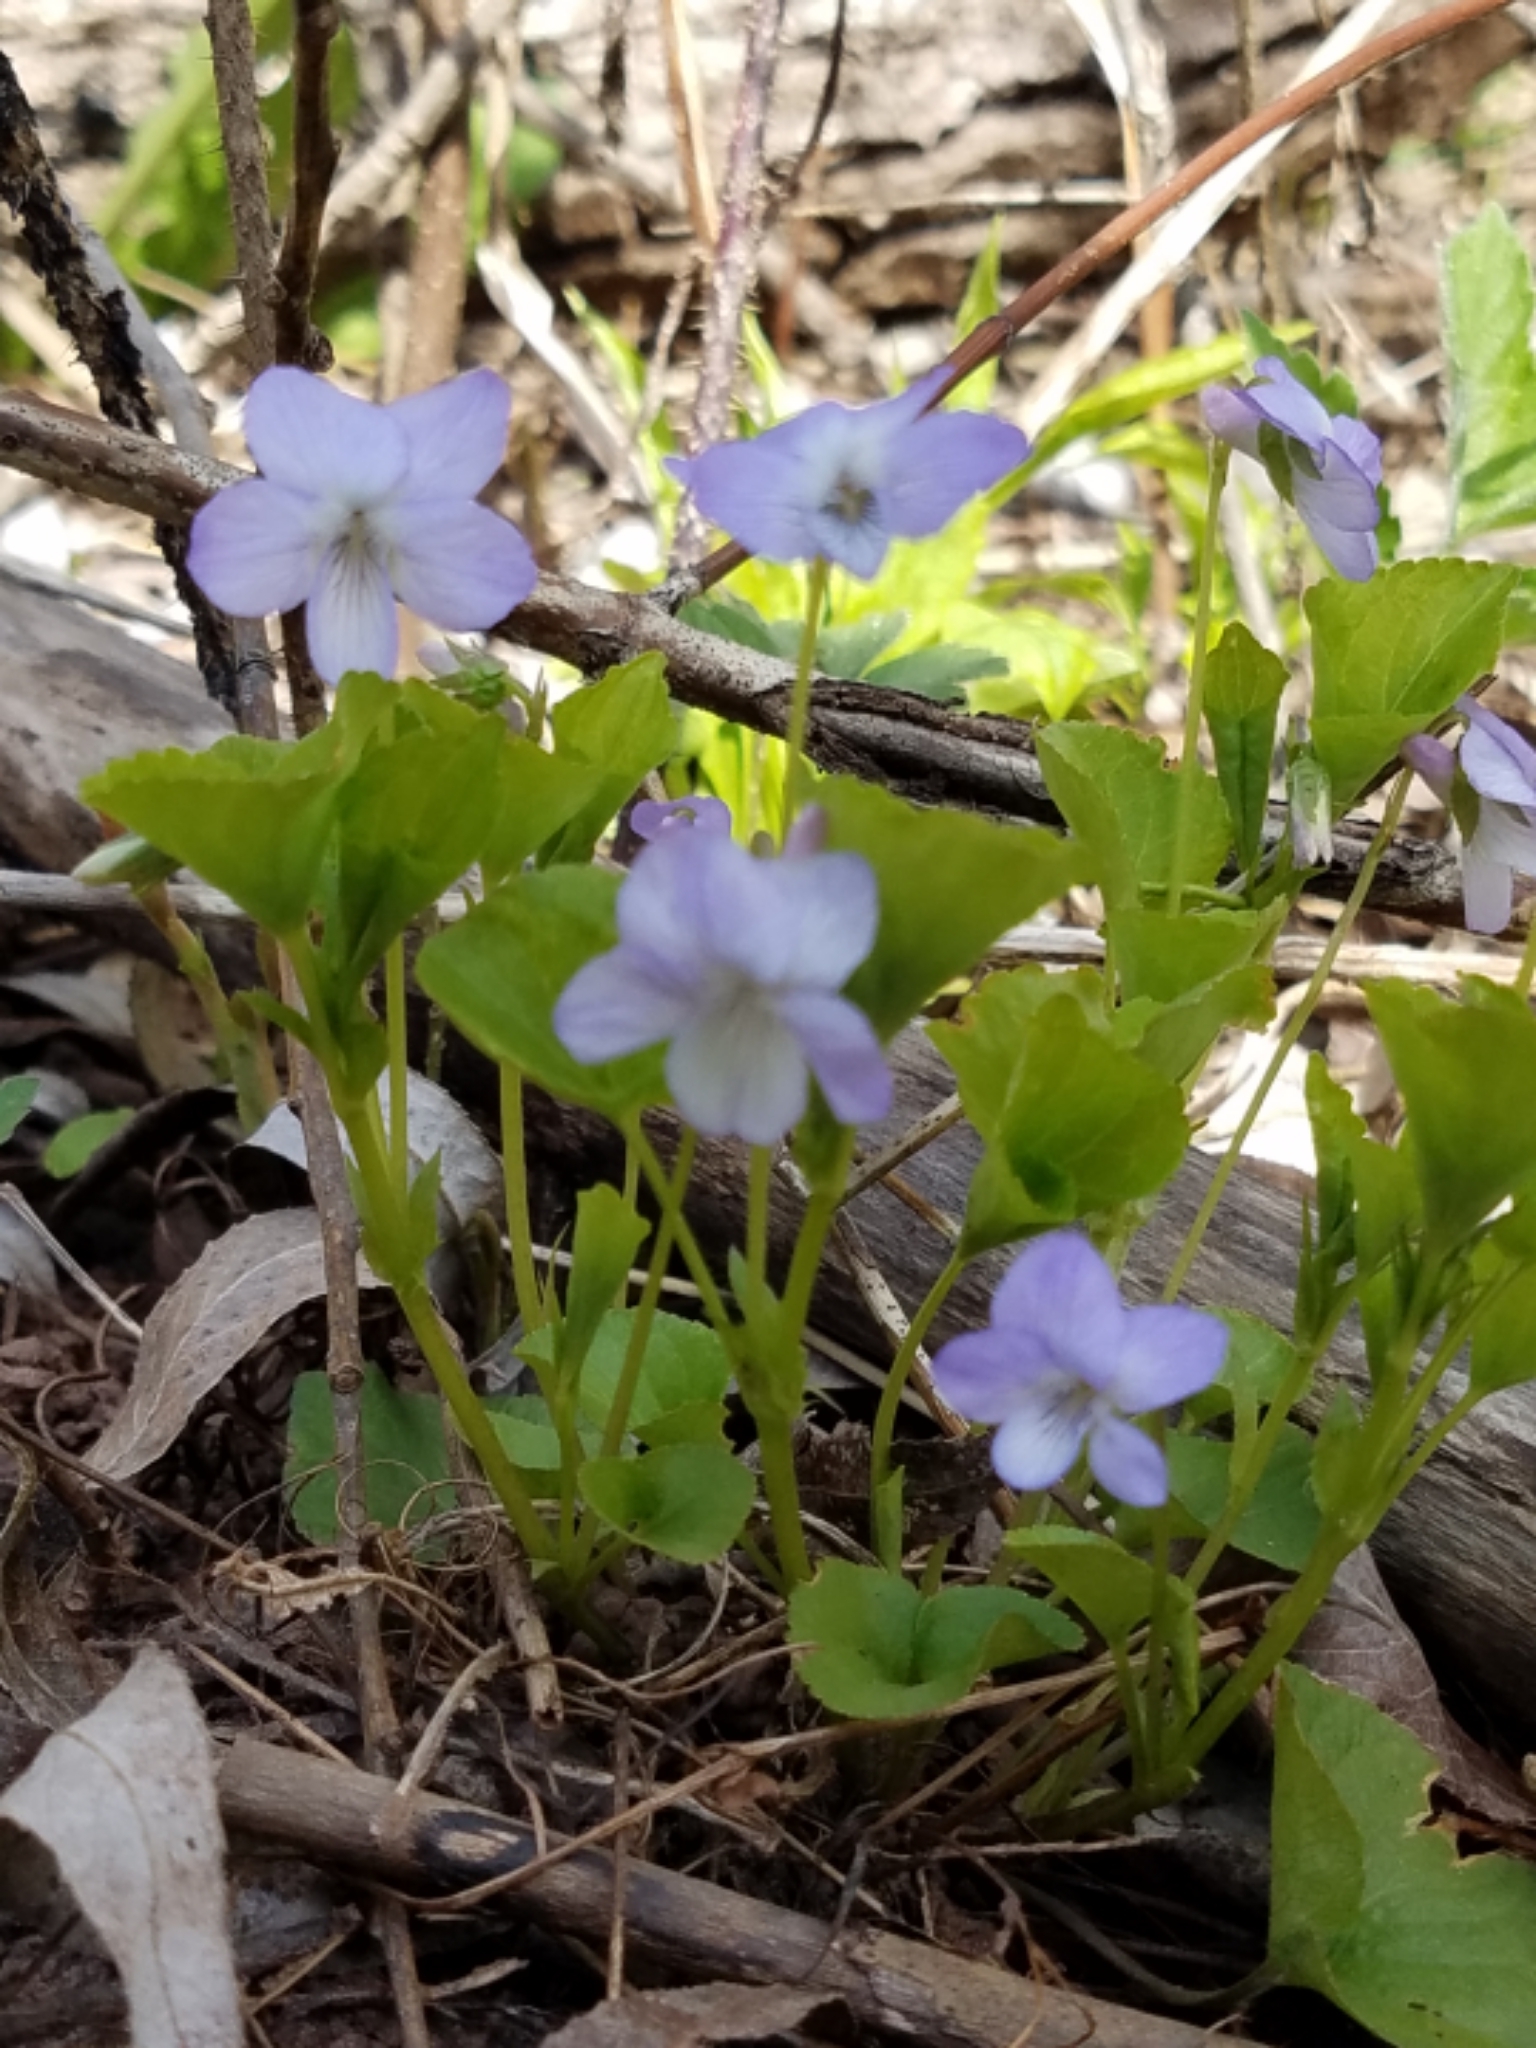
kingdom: Plantae
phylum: Tracheophyta
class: Magnoliopsida
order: Malpighiales
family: Violaceae
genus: Viola
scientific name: Viola labradorica
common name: Labrador violet
